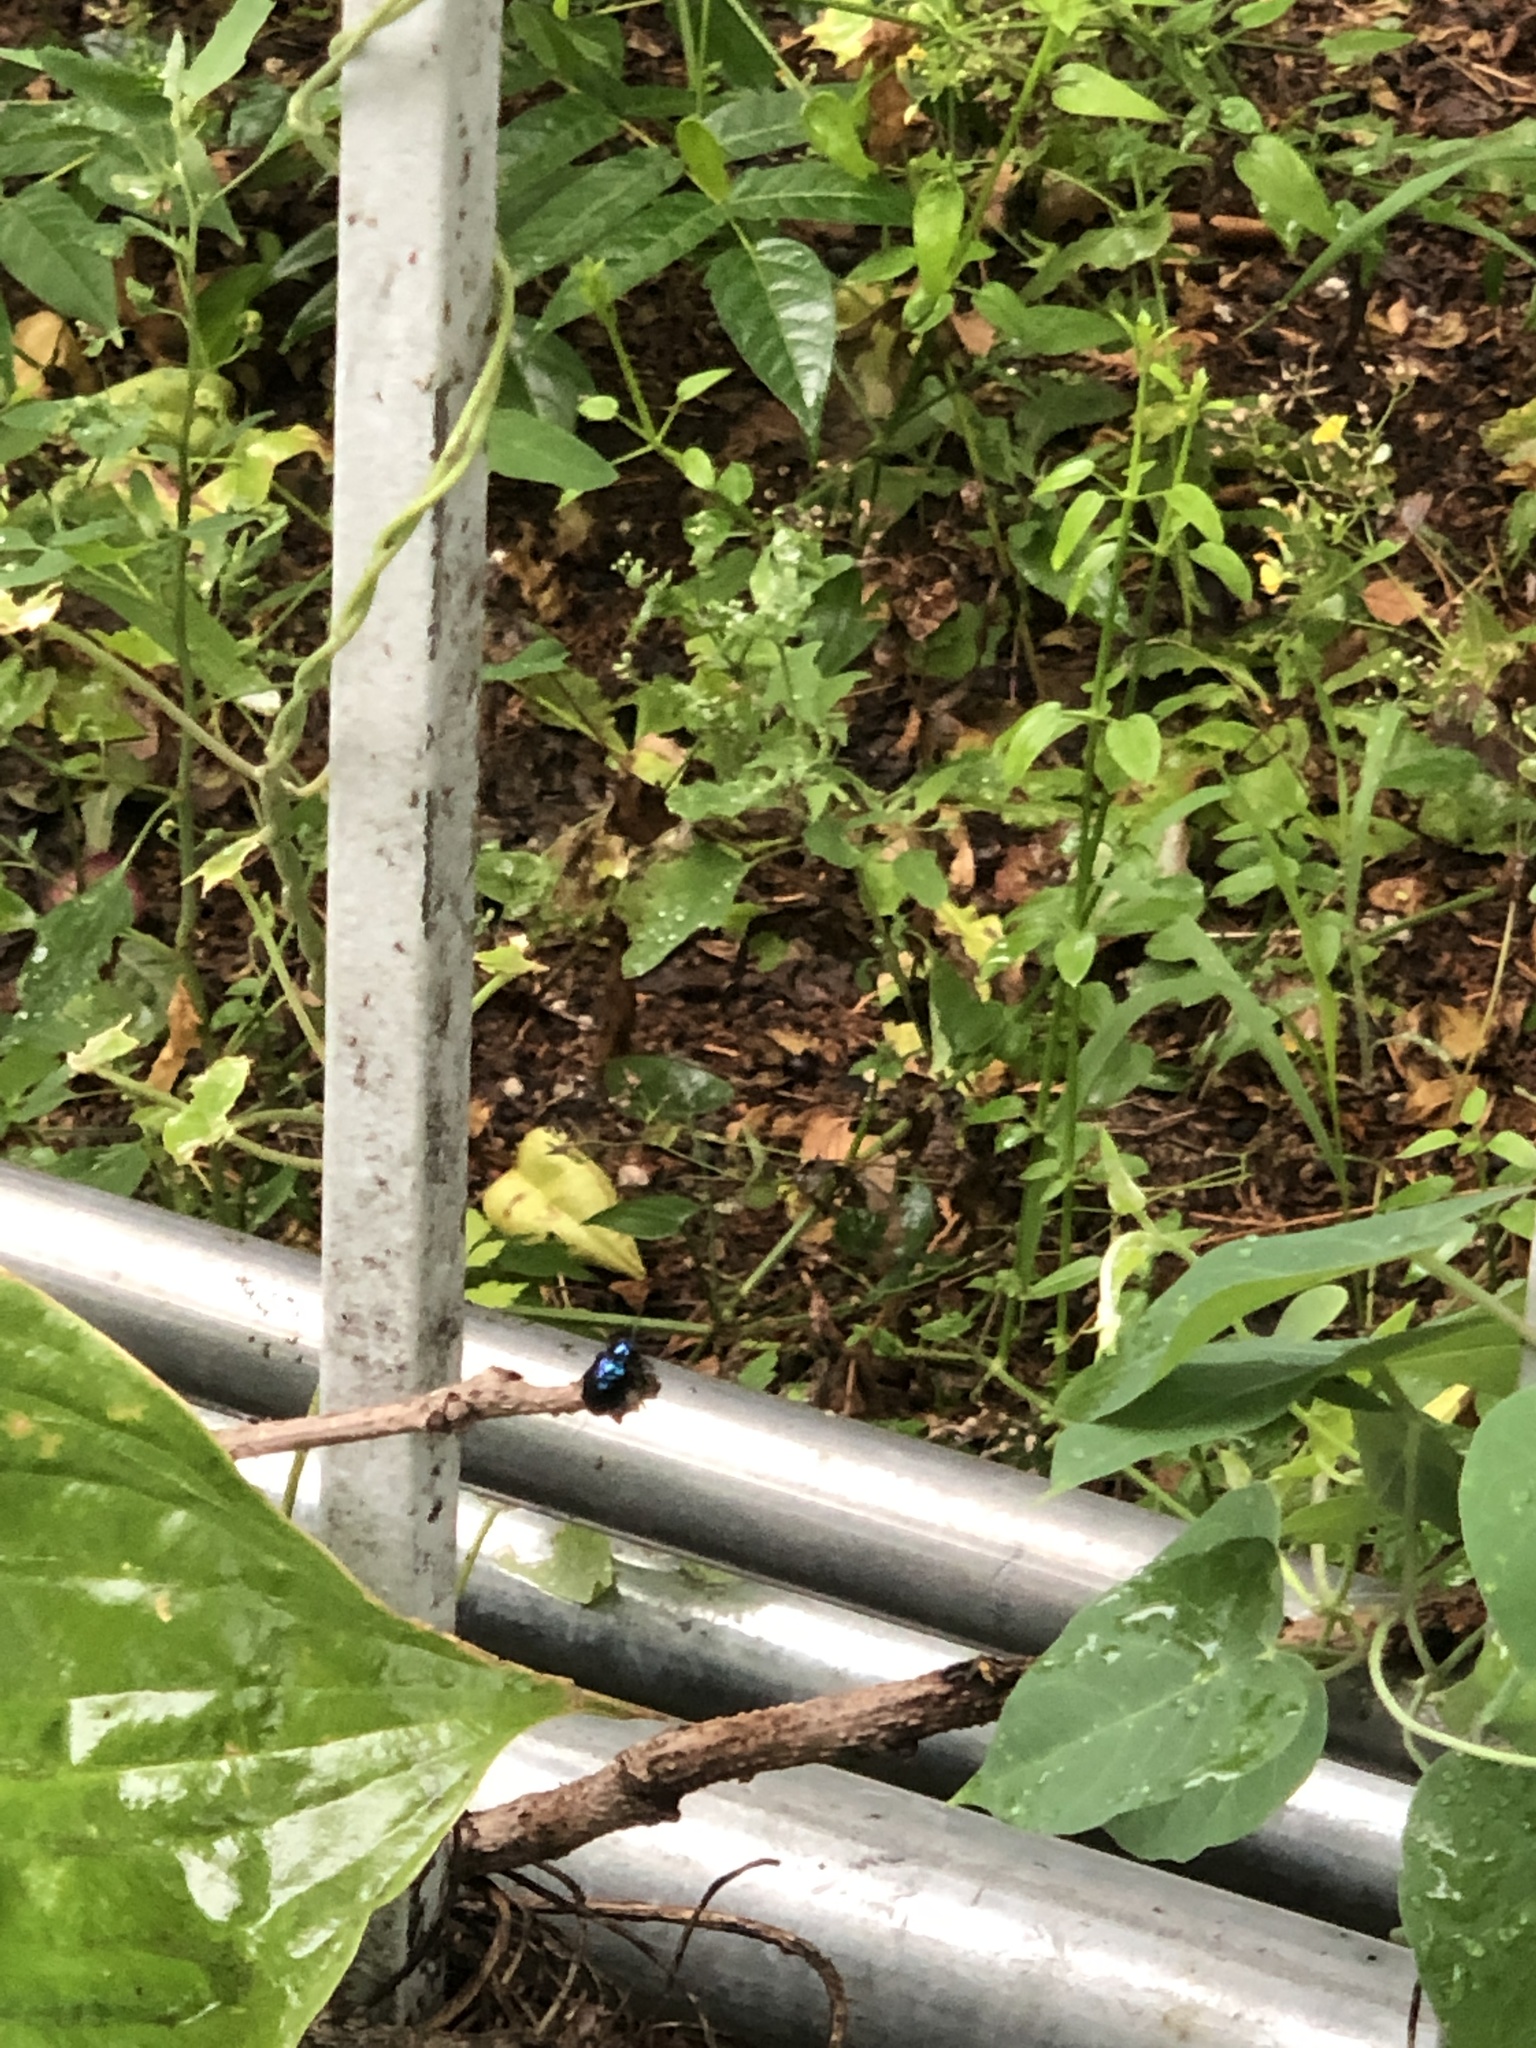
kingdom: Animalia
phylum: Arthropoda
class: Insecta
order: Coleoptera
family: Chrysomelidae
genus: Chrysochus
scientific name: Chrysochus chinensis
